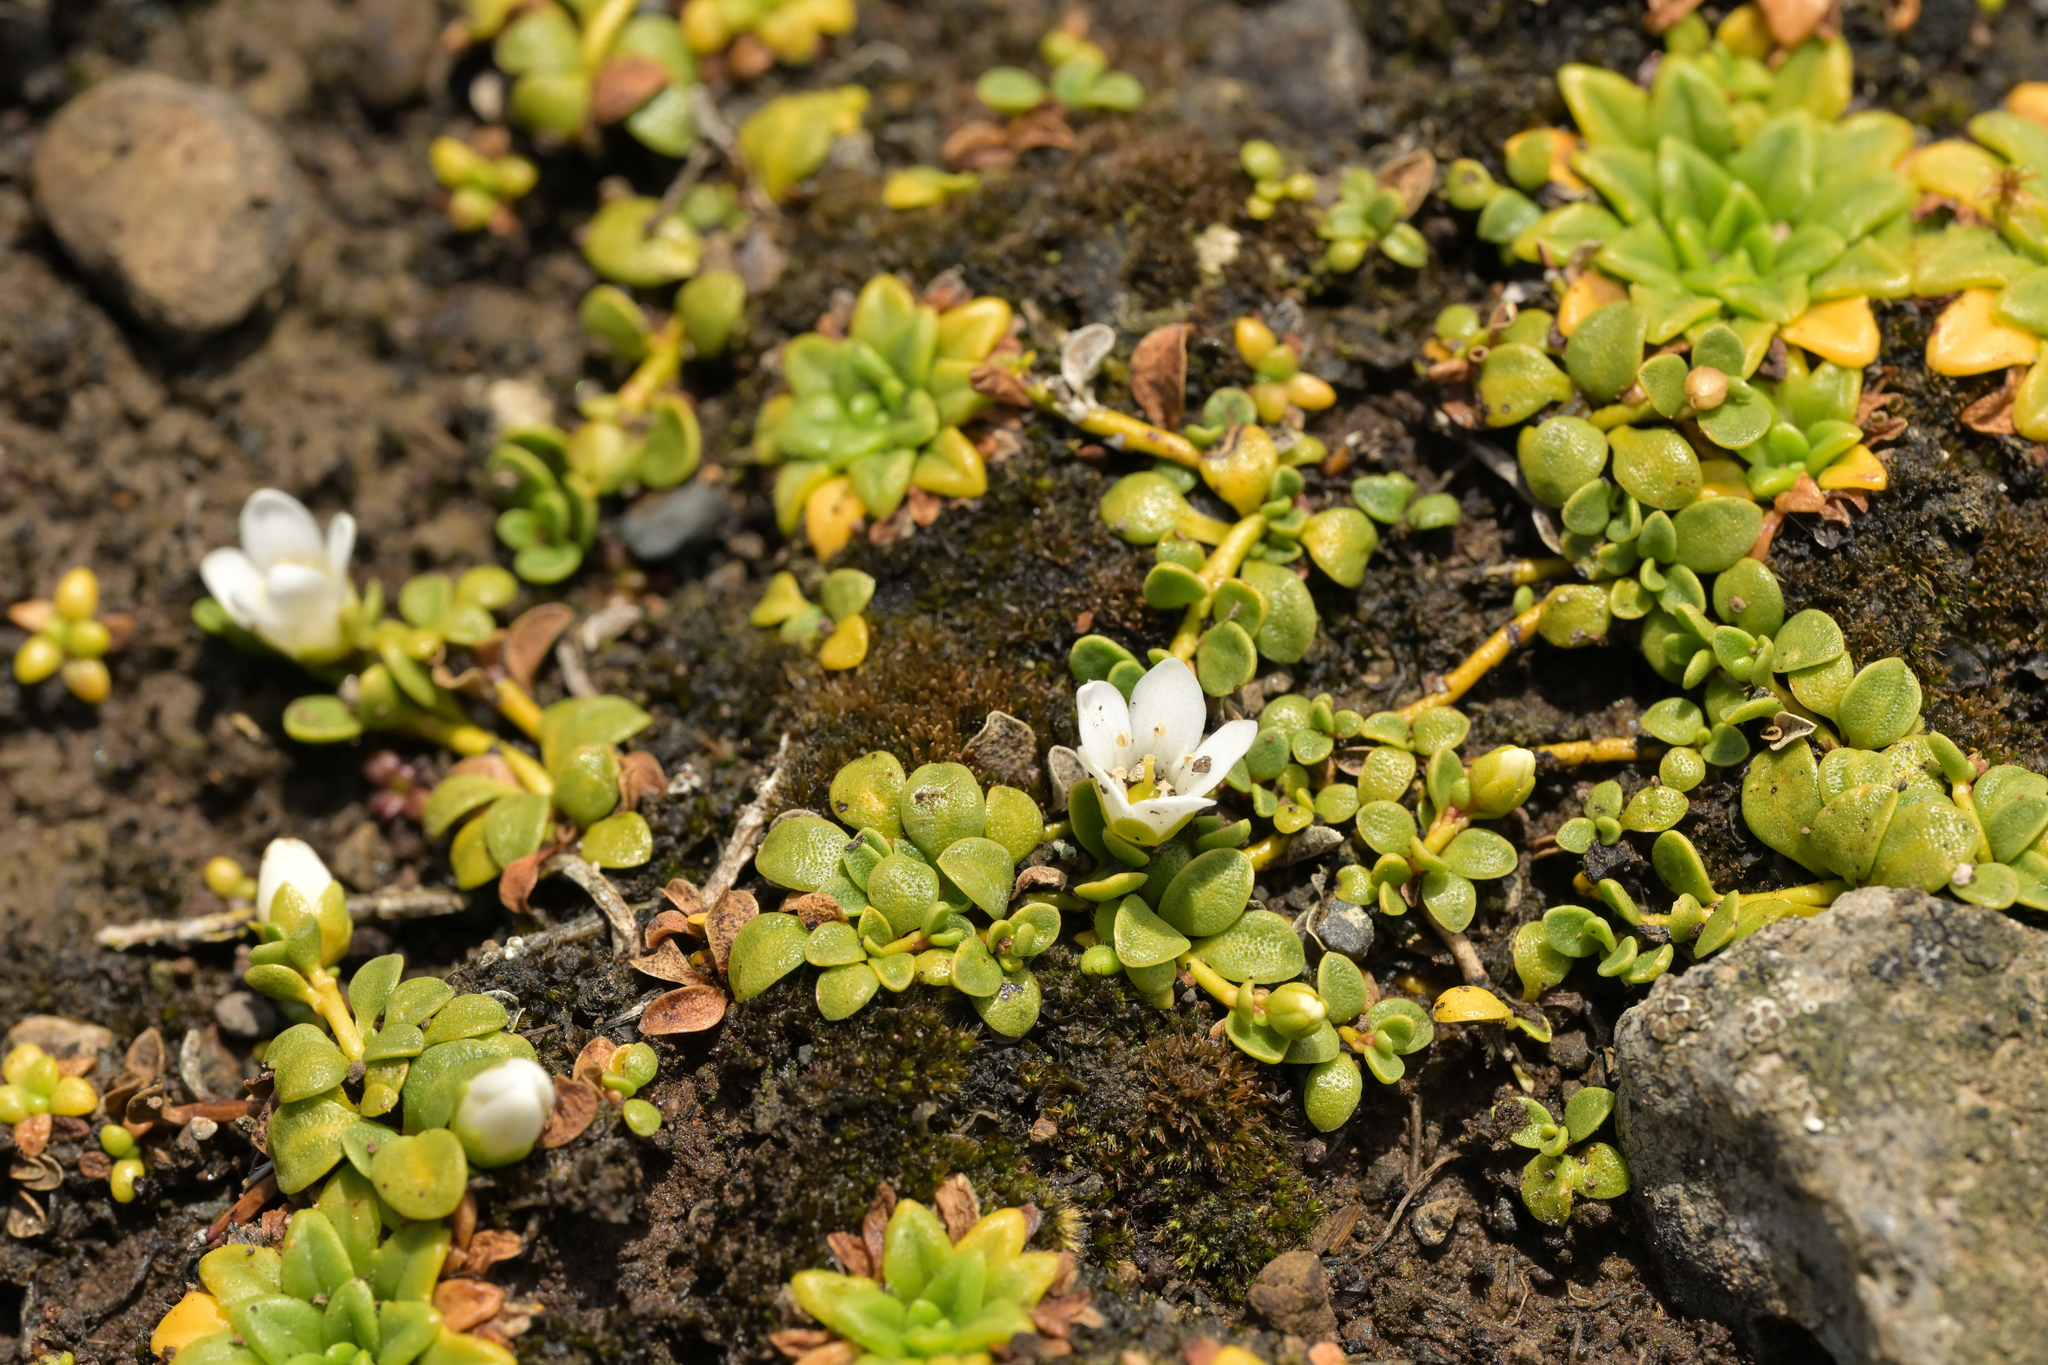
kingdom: Plantae
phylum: Tracheophyta
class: Magnoliopsida
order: Ericales
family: Primulaceae
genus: Samolus
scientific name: Samolus repens
